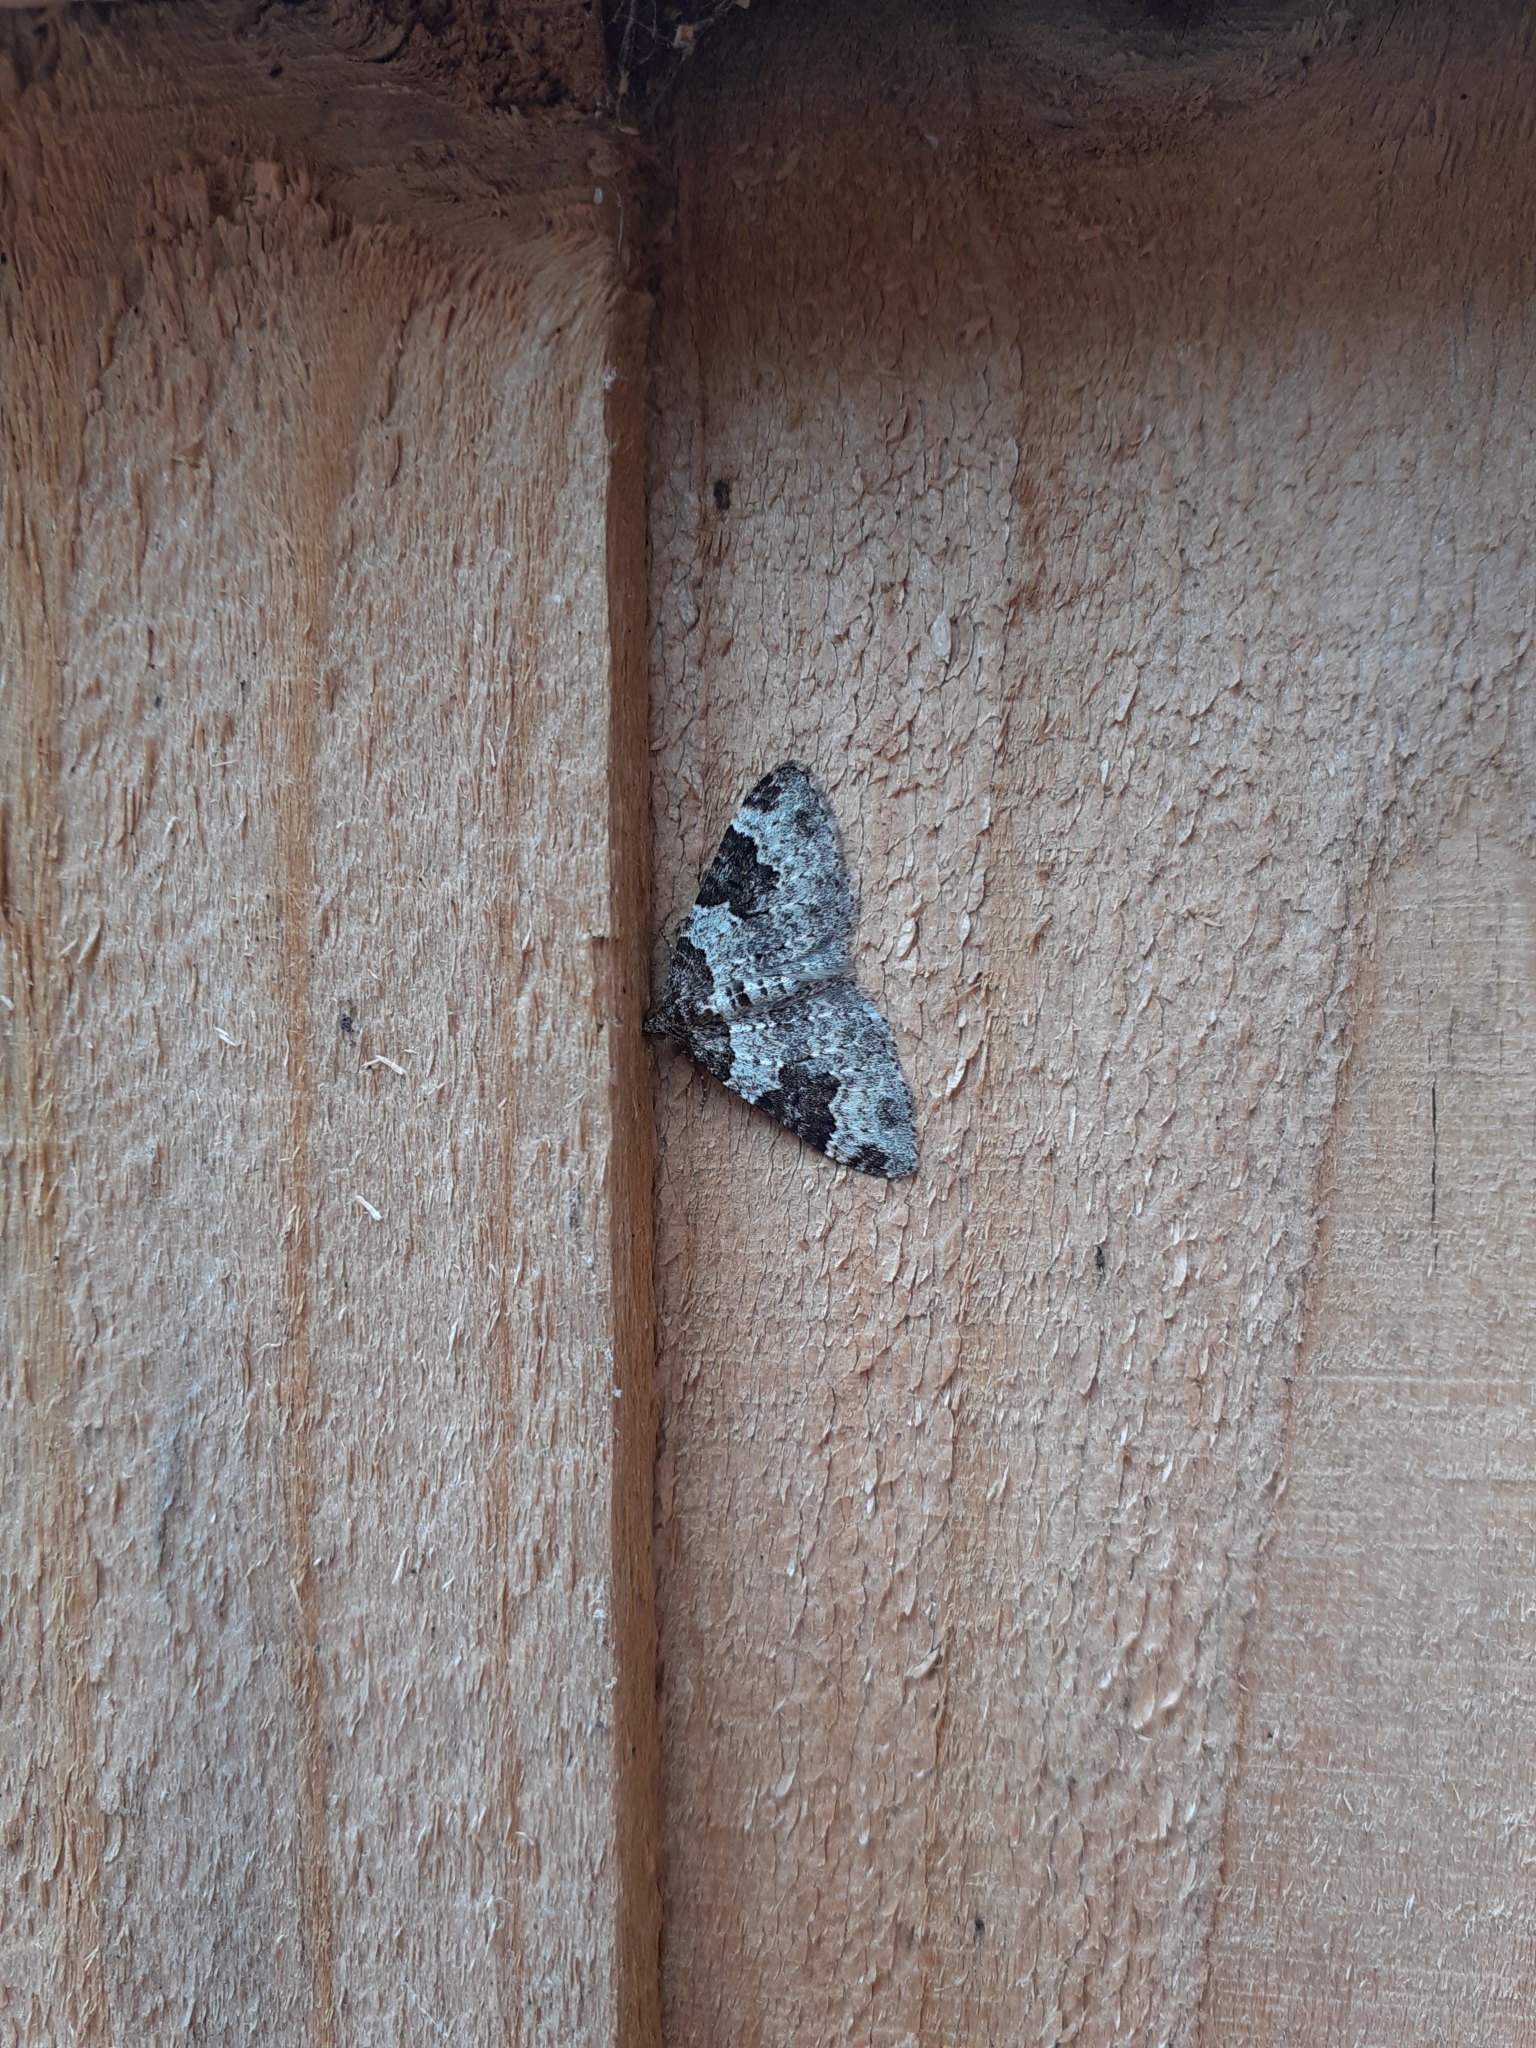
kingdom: Animalia
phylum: Arthropoda
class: Insecta
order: Lepidoptera
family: Geometridae
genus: Xanthorhoe
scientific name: Xanthorhoe fluctuata
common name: Garden carpet
